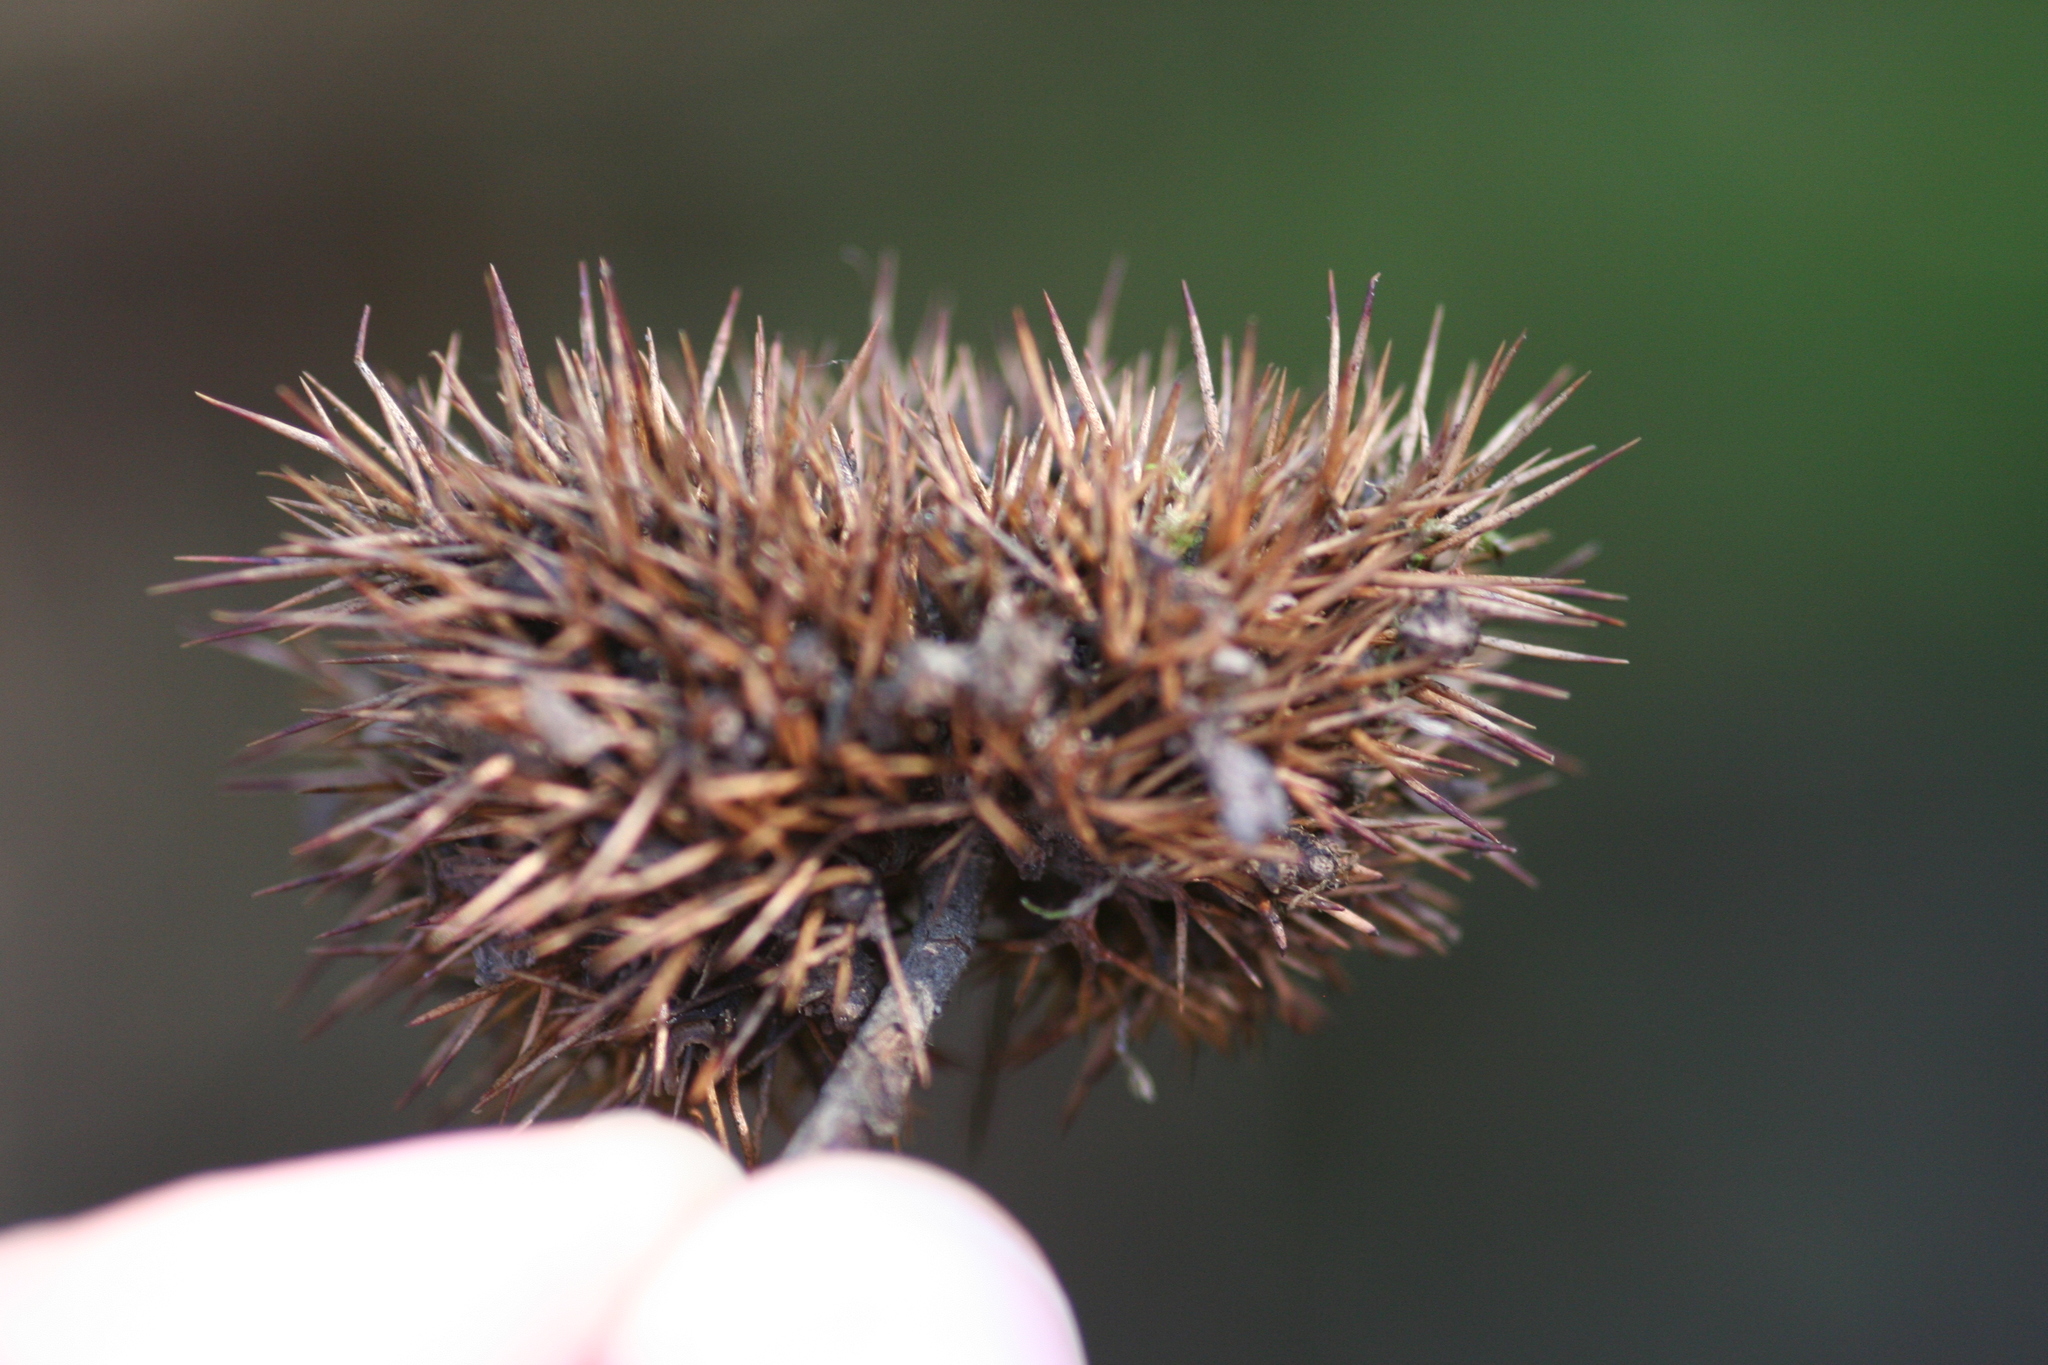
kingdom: Plantae
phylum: Tracheophyta
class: Magnoliopsida
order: Fagales
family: Fagaceae
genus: Chrysolepis
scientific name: Chrysolepis chrysophylla
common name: Giant chinquapin
